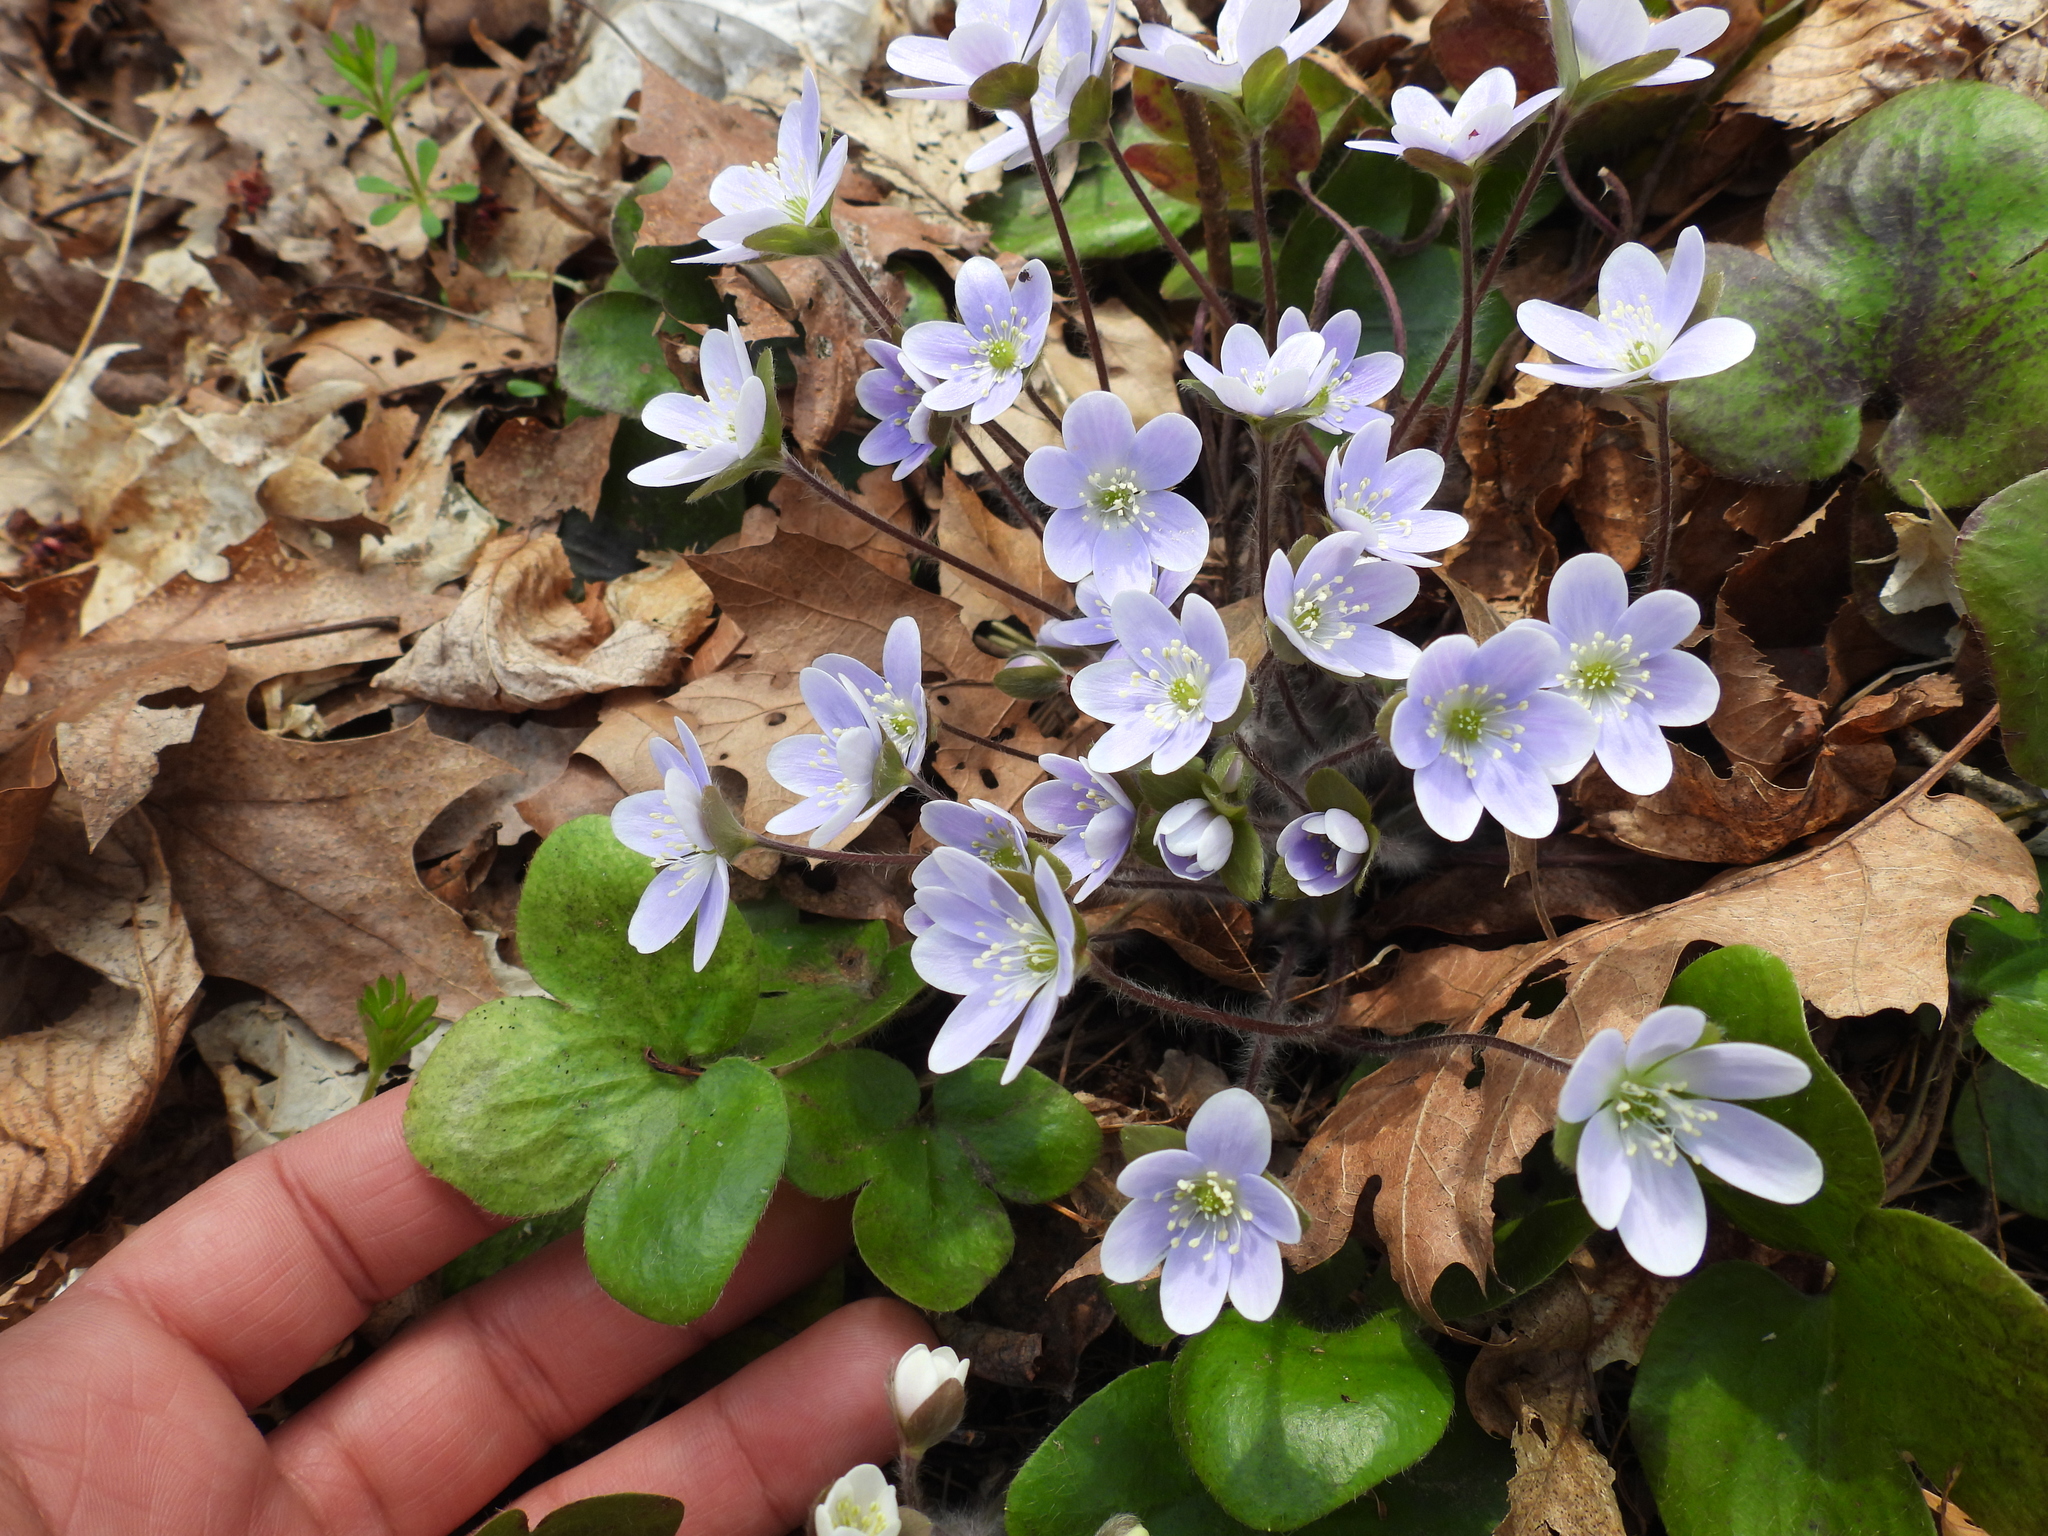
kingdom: Plantae
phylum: Tracheophyta
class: Magnoliopsida
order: Ranunculales
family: Ranunculaceae
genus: Hepatica
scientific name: Hepatica americana
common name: American hepatica
